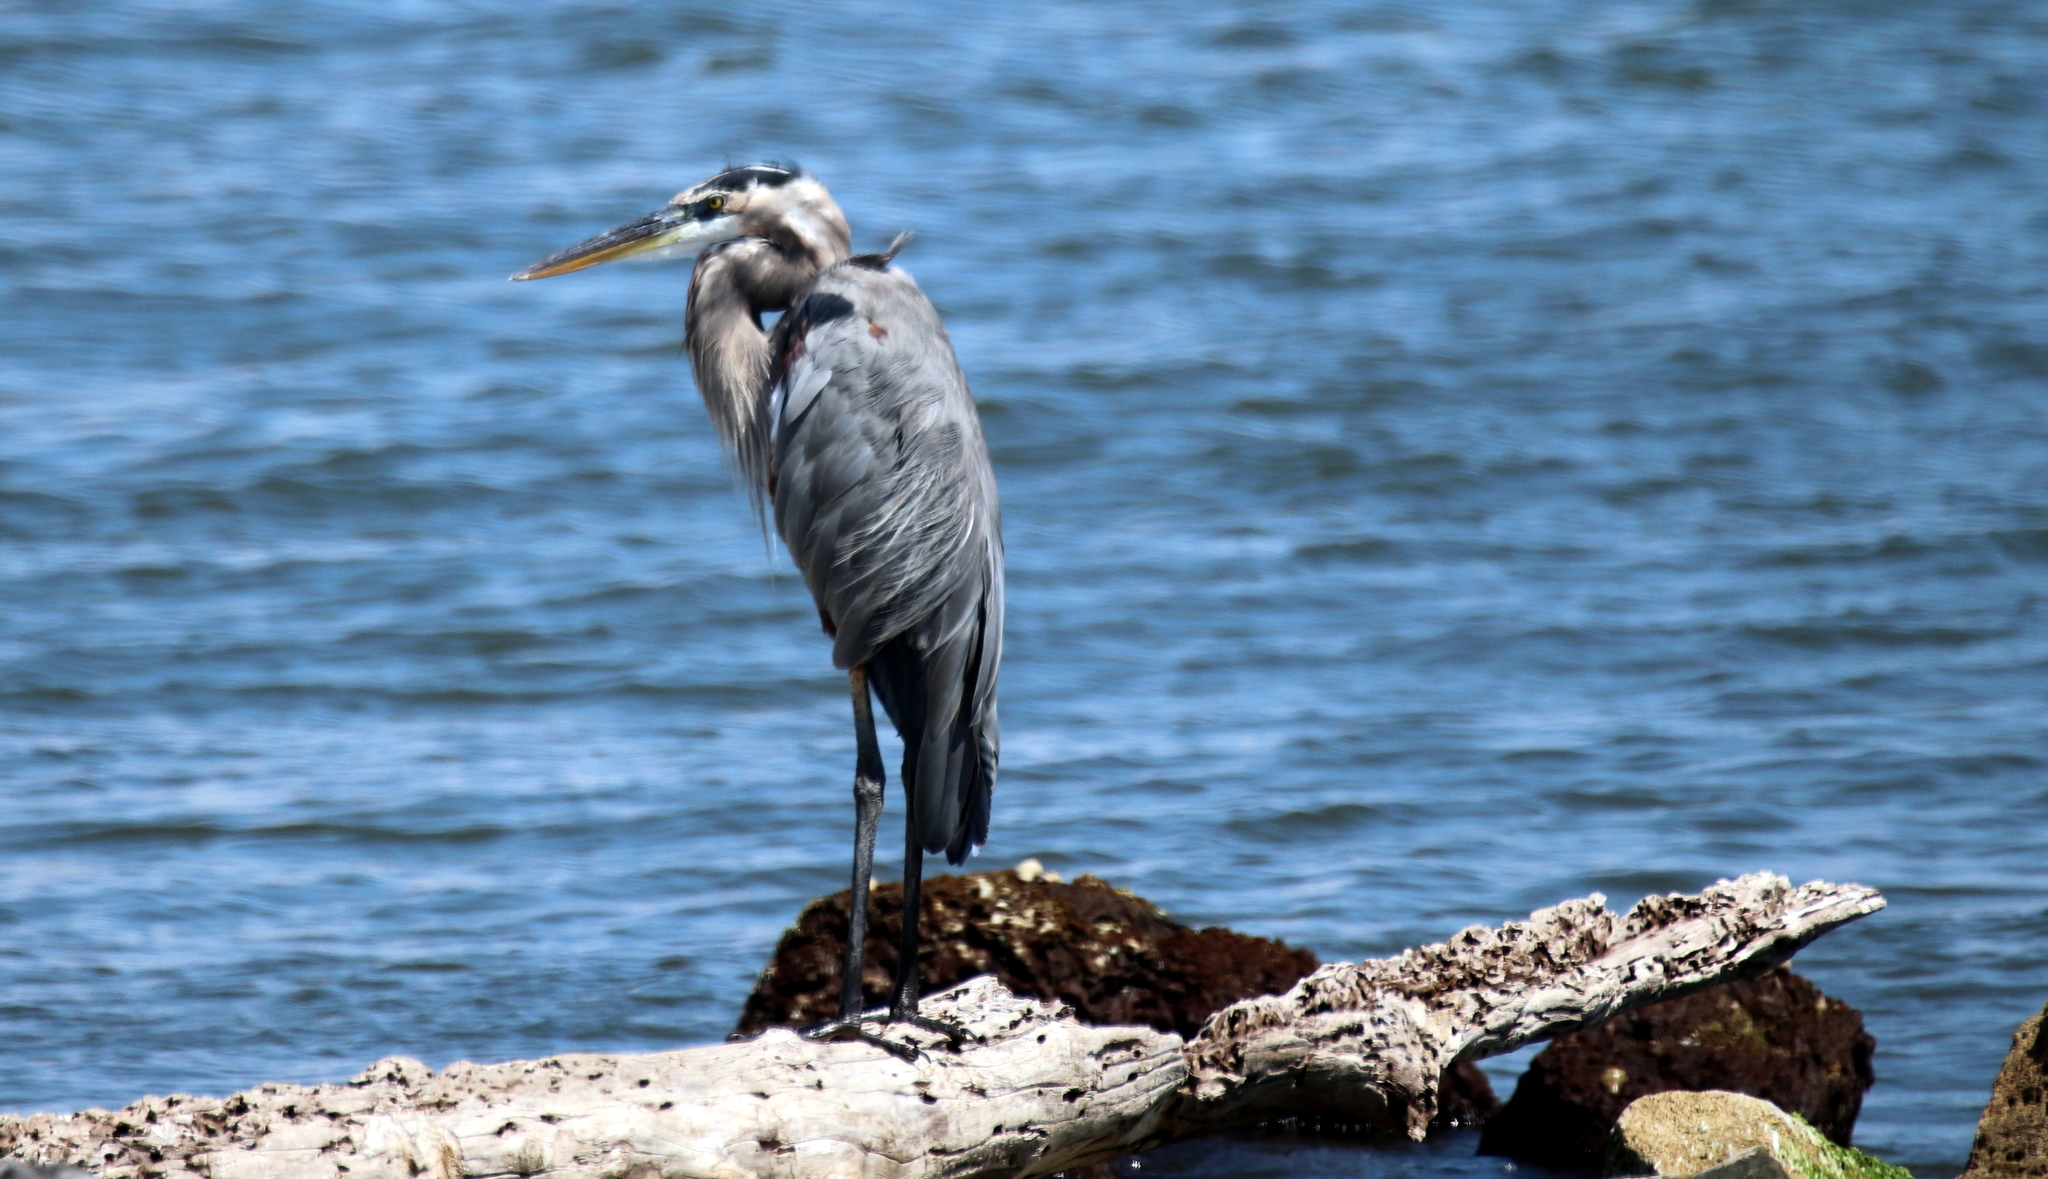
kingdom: Animalia
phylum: Chordata
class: Aves
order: Pelecaniformes
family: Ardeidae
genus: Ardea
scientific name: Ardea herodias
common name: Great blue heron
